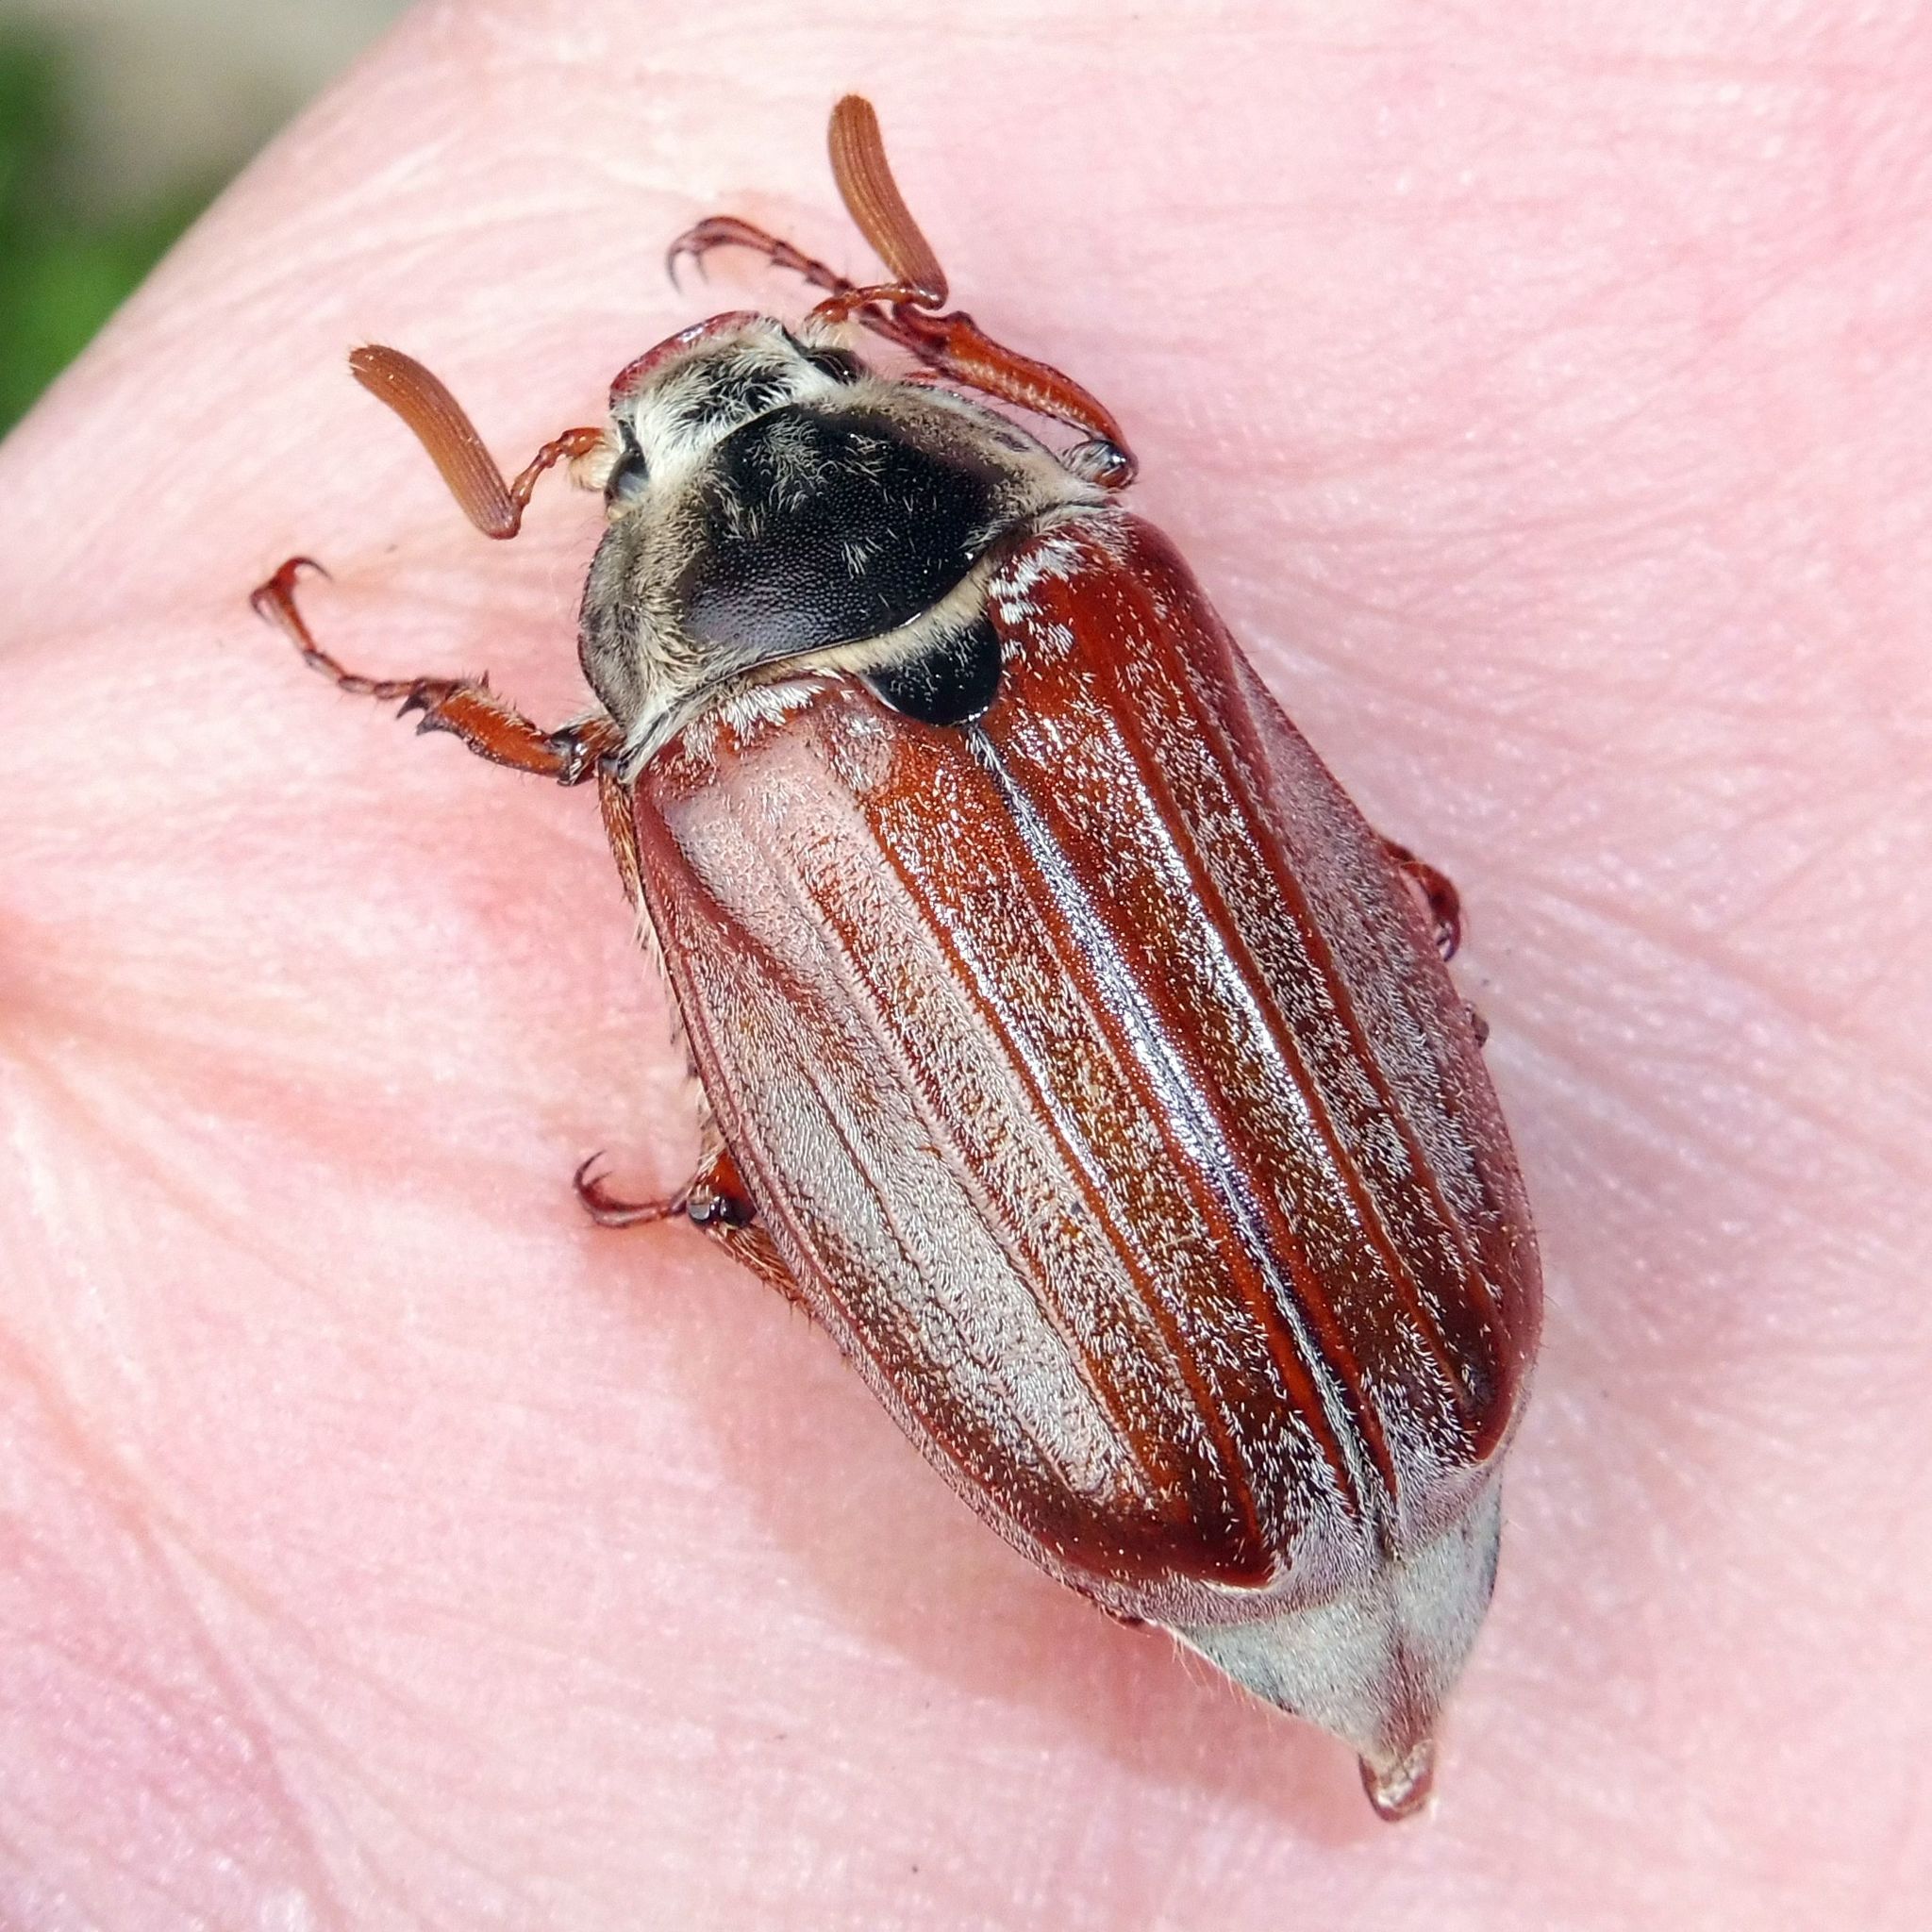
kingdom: Animalia
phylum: Arthropoda
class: Insecta
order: Coleoptera
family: Scarabaeidae
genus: Melolontha
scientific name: Melolontha melolontha
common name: Cockchafer maybeetle
